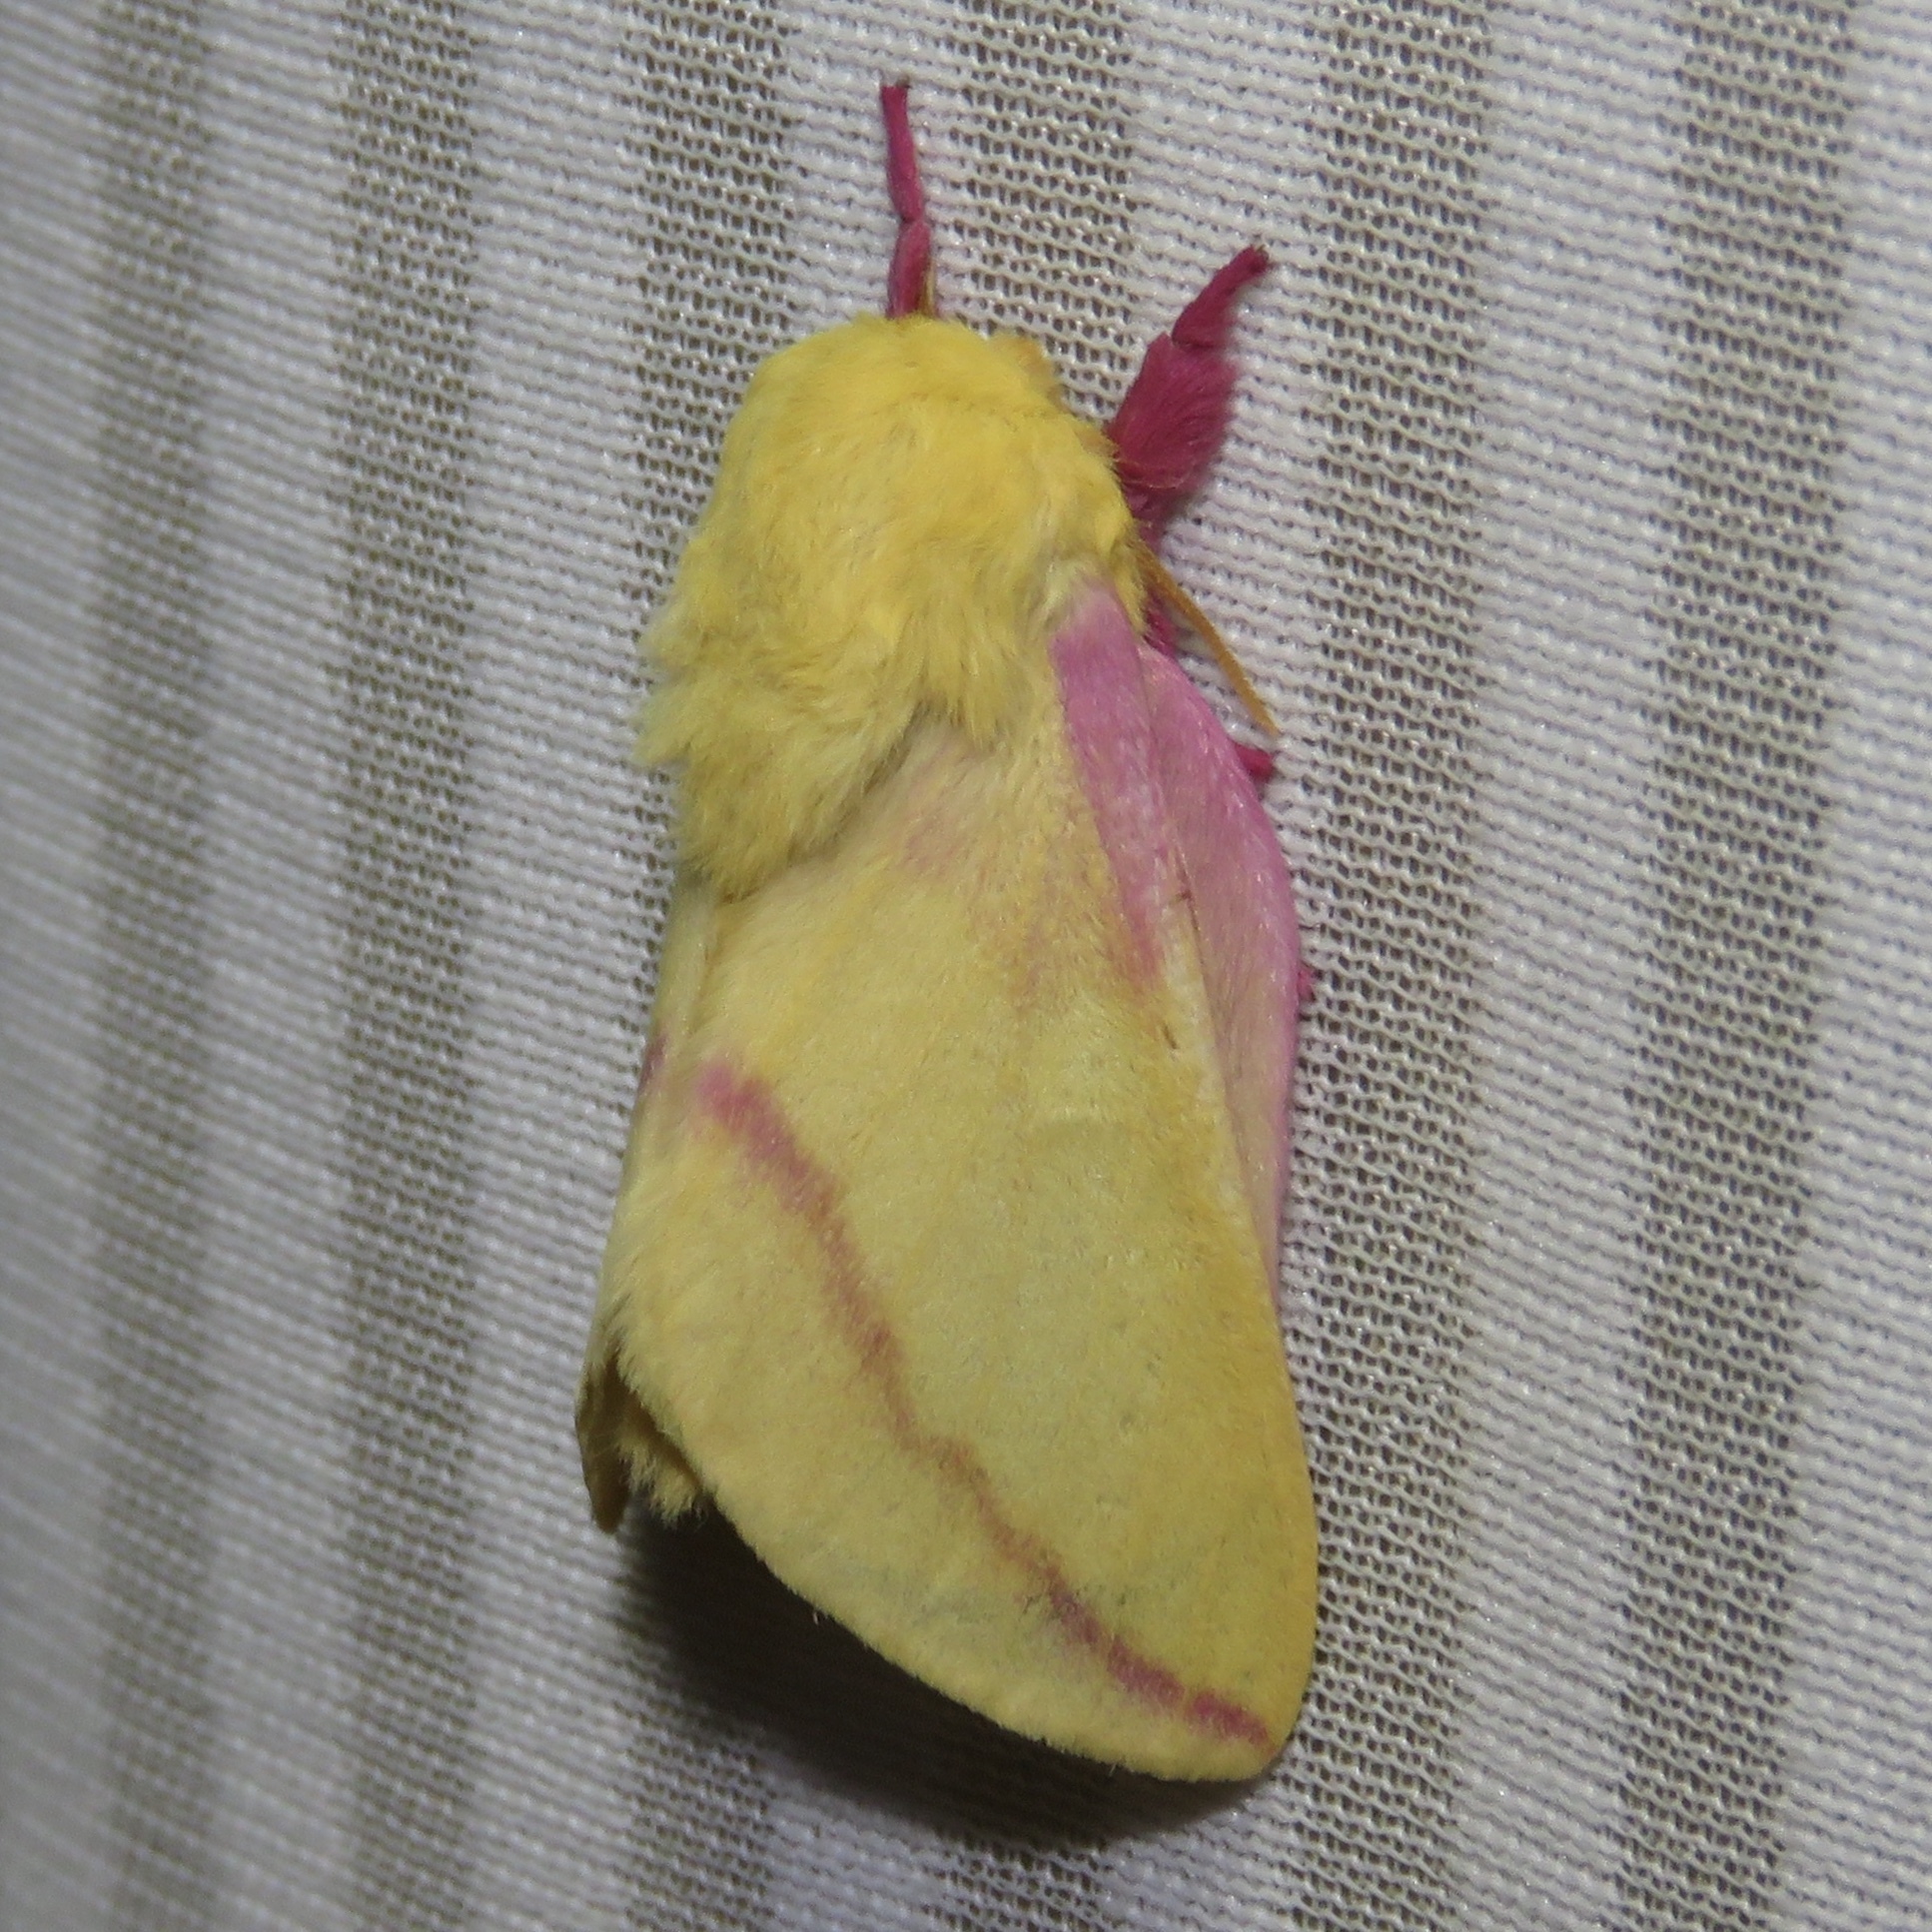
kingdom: Animalia
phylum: Arthropoda
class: Insecta
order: Lepidoptera
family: Saturniidae
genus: Dryocampa
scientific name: Dryocampa rubicunda
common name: Rosy maple moth
